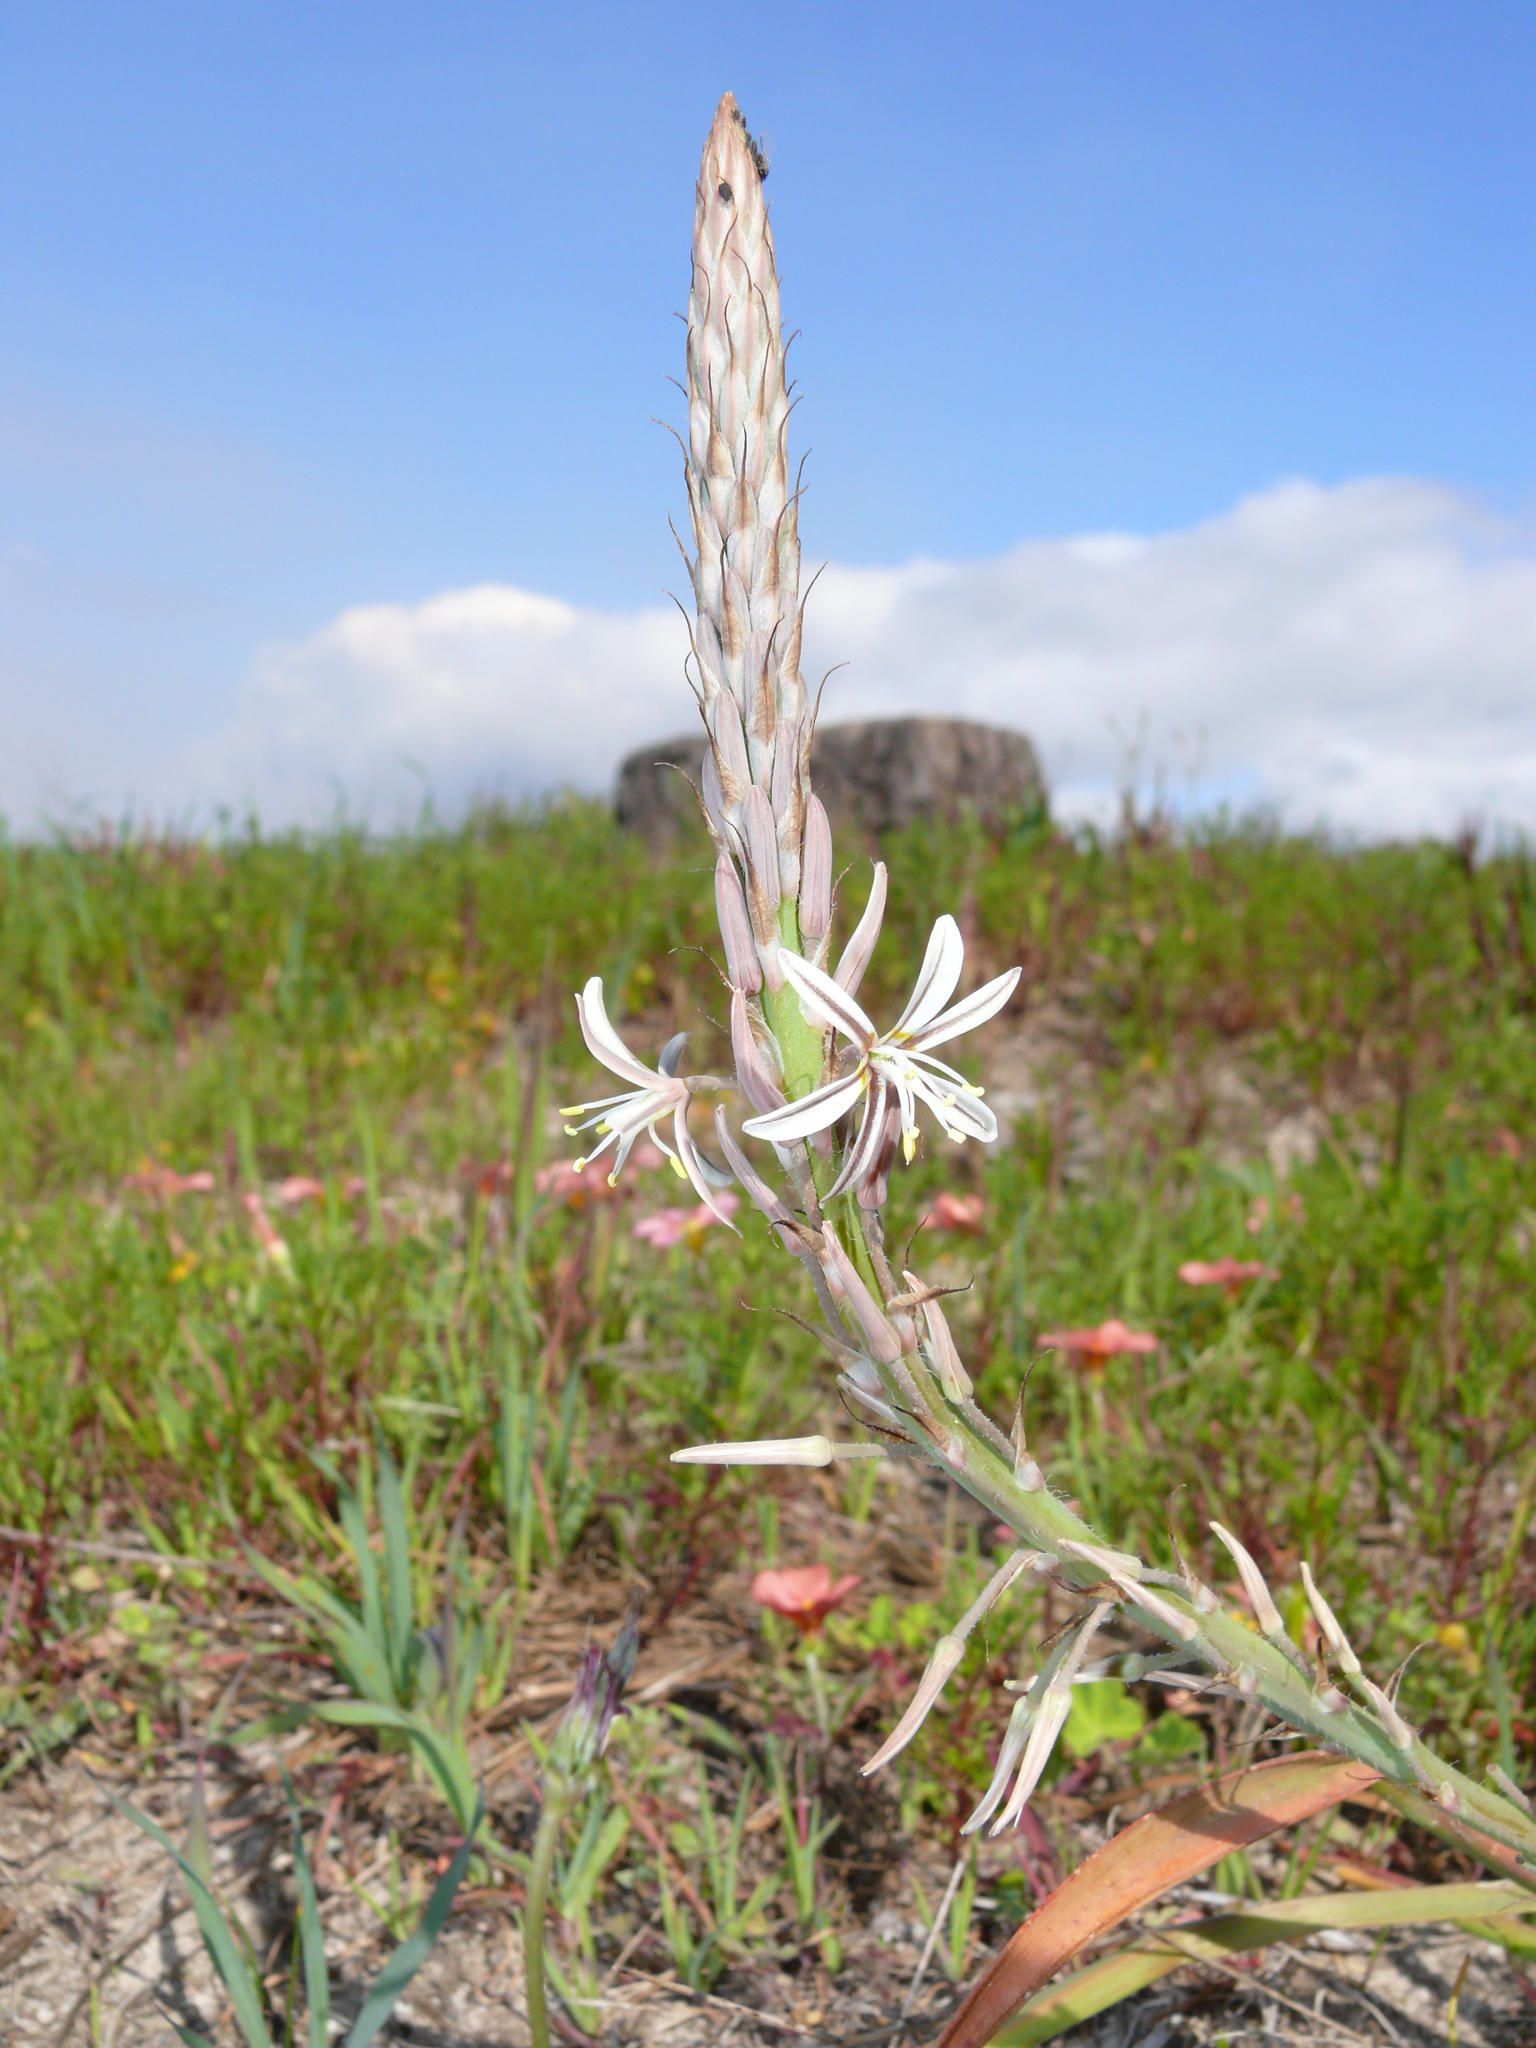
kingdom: Plantae
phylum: Tracheophyta
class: Liliopsida
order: Asparagales
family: Asphodelaceae
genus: Trachyandra
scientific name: Trachyandra ciliata
